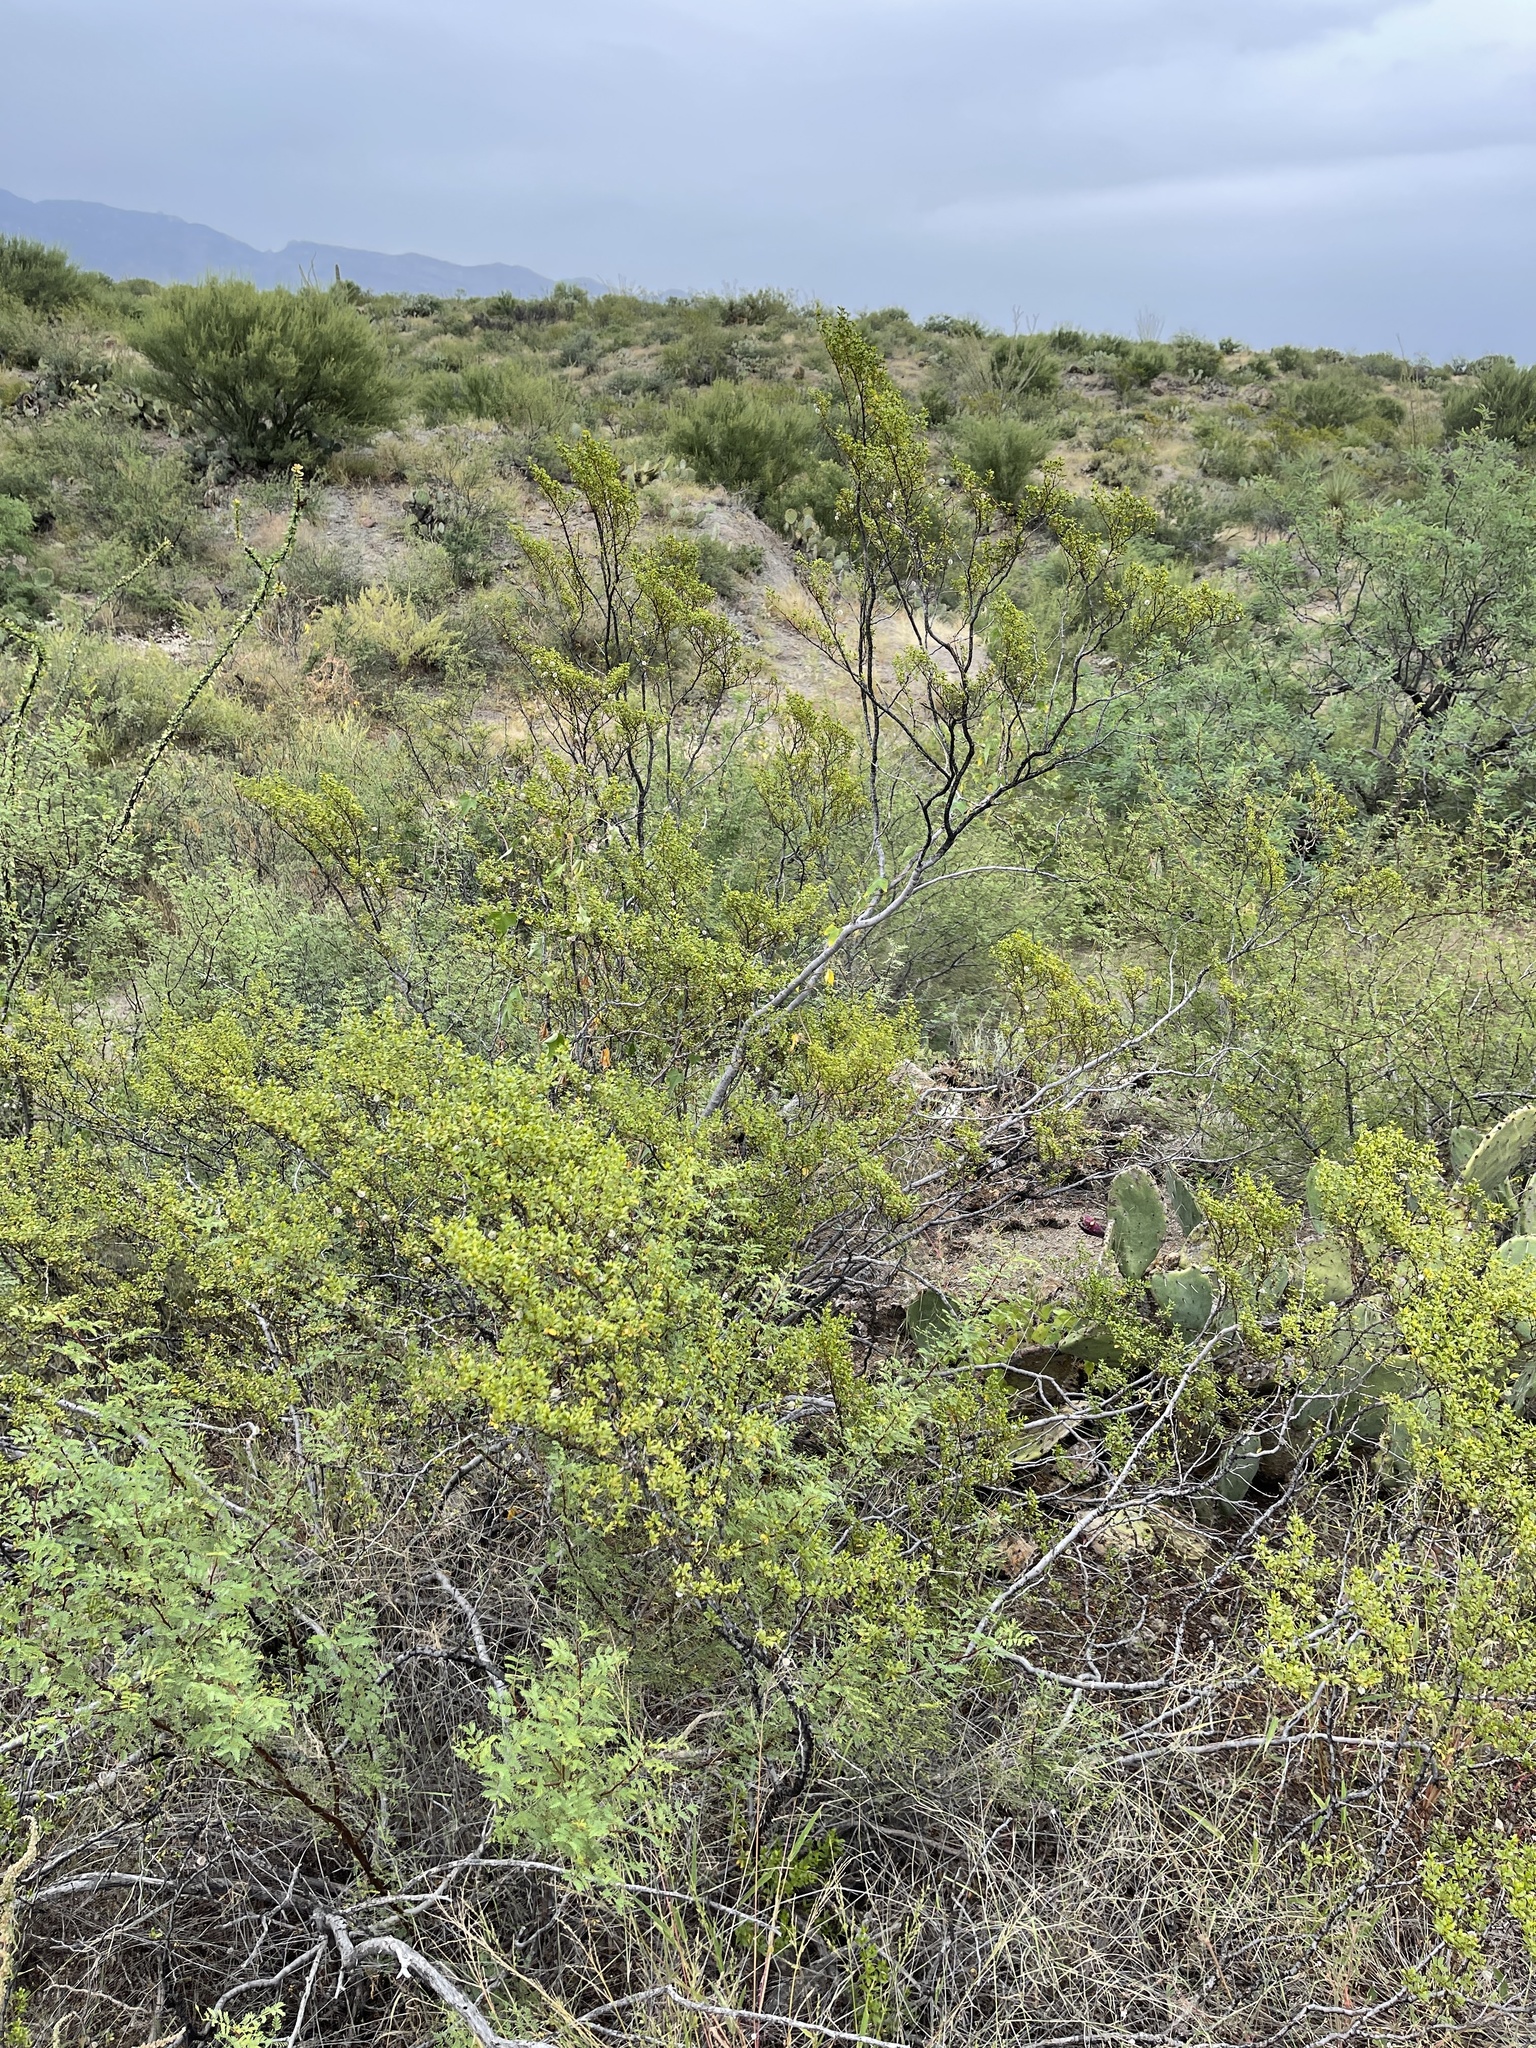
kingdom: Plantae
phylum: Tracheophyta
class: Magnoliopsida
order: Zygophyllales
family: Zygophyllaceae
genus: Larrea
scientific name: Larrea tridentata
